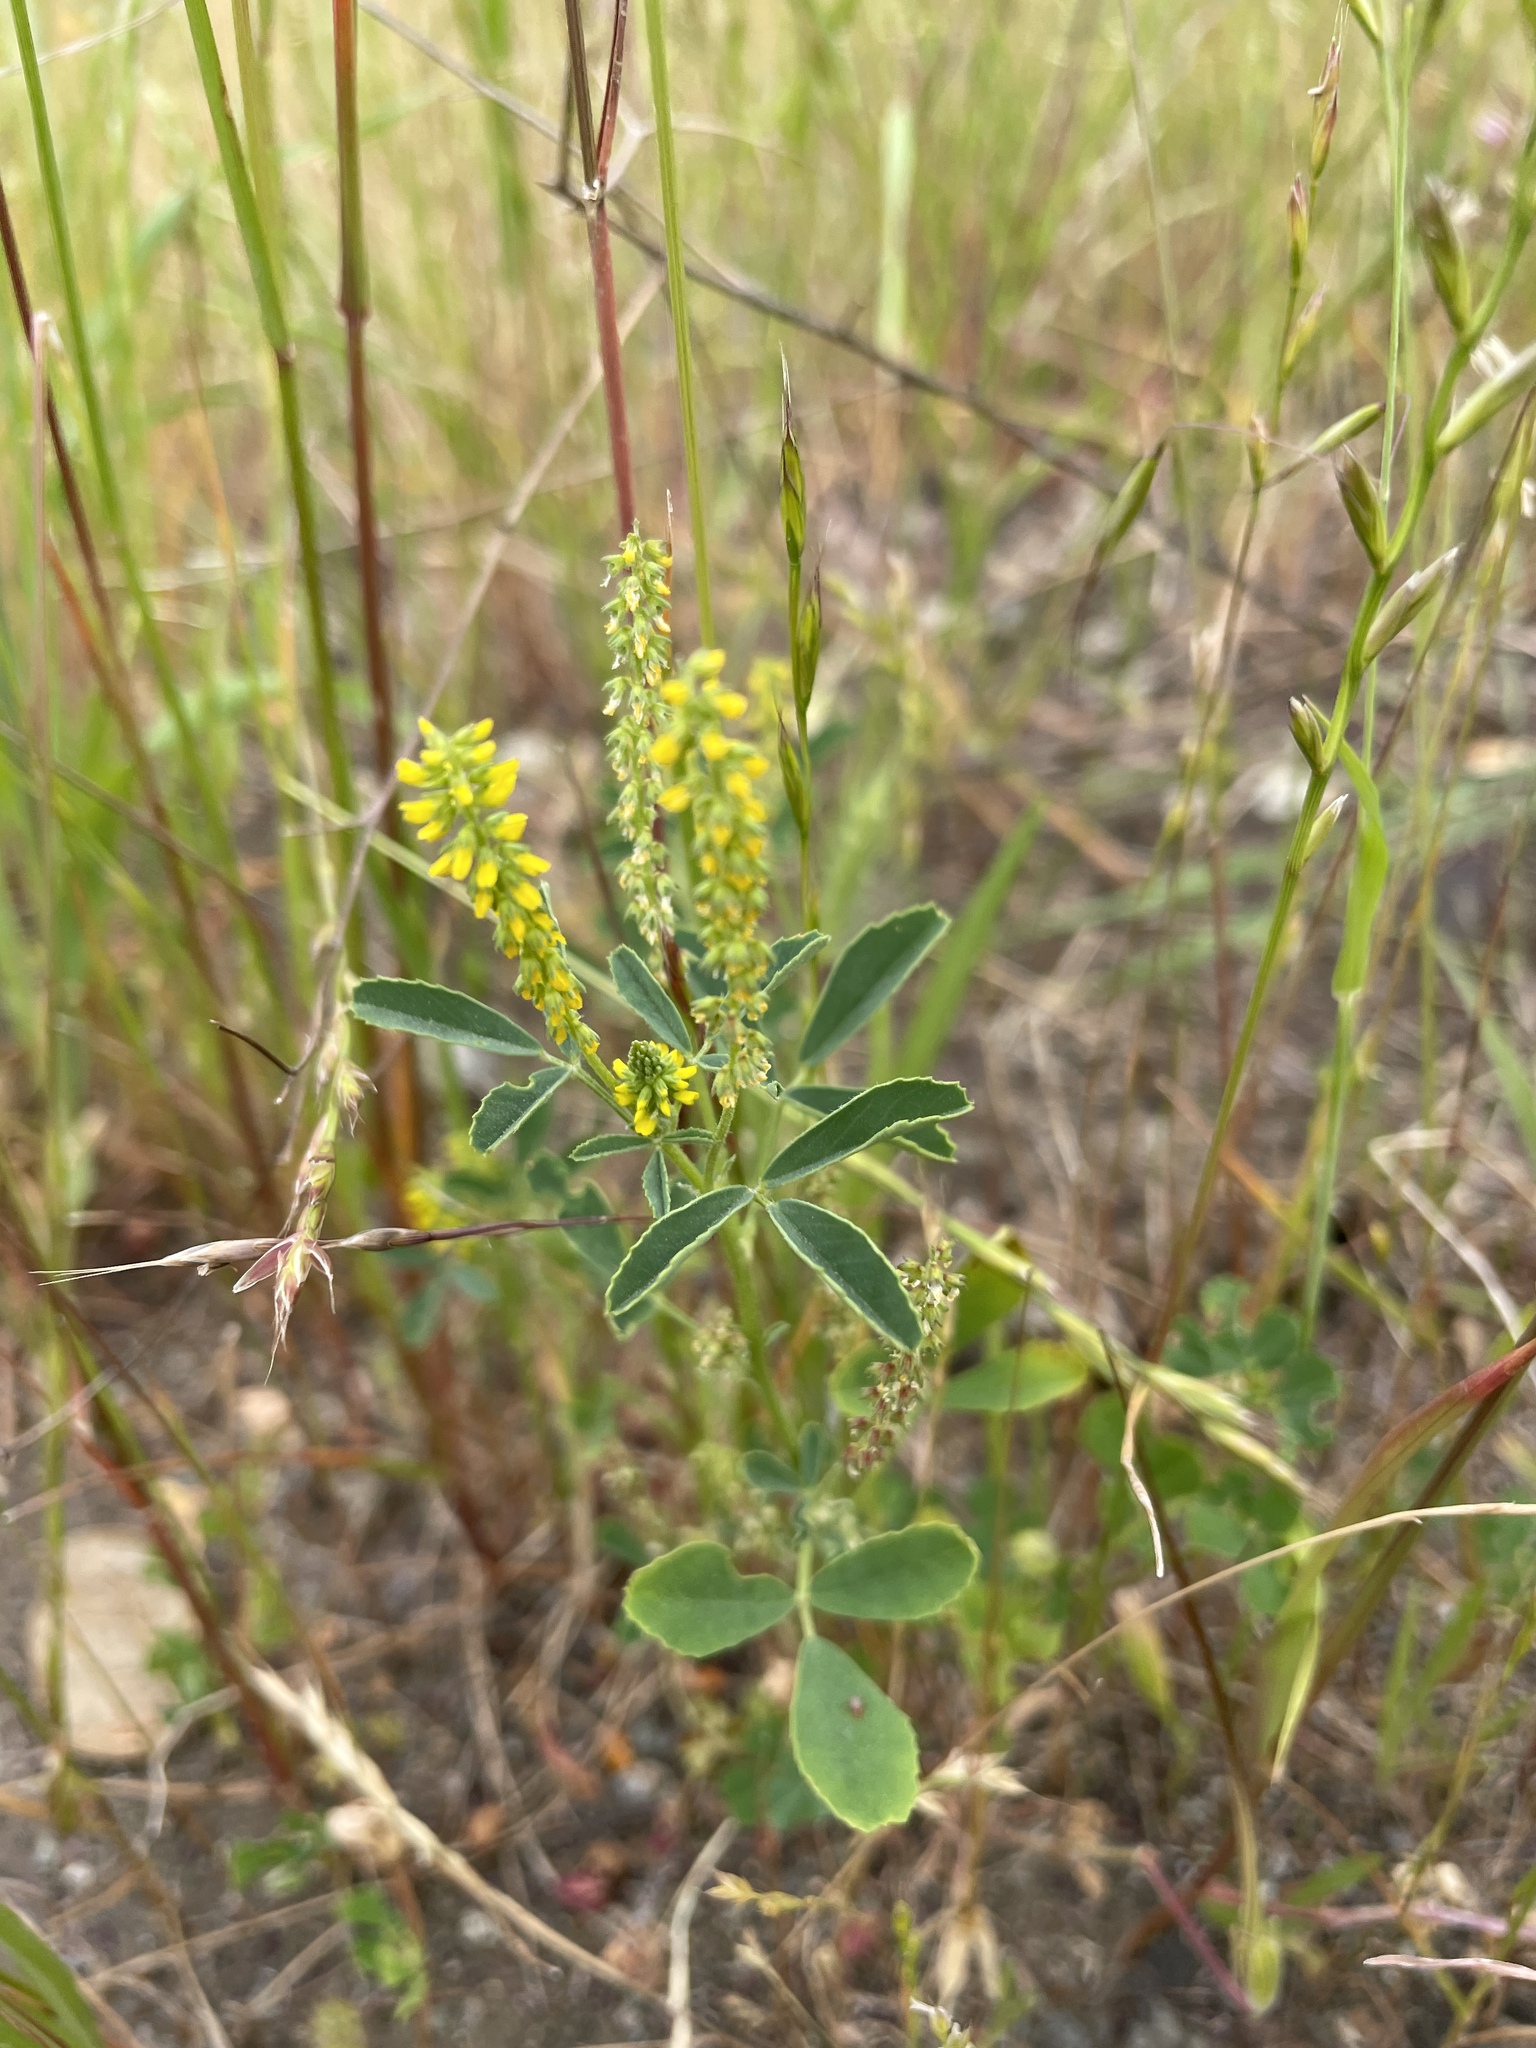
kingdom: Plantae
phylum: Tracheophyta
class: Magnoliopsida
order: Fabales
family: Fabaceae
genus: Melilotus
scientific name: Melilotus indicus
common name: Small melilot
